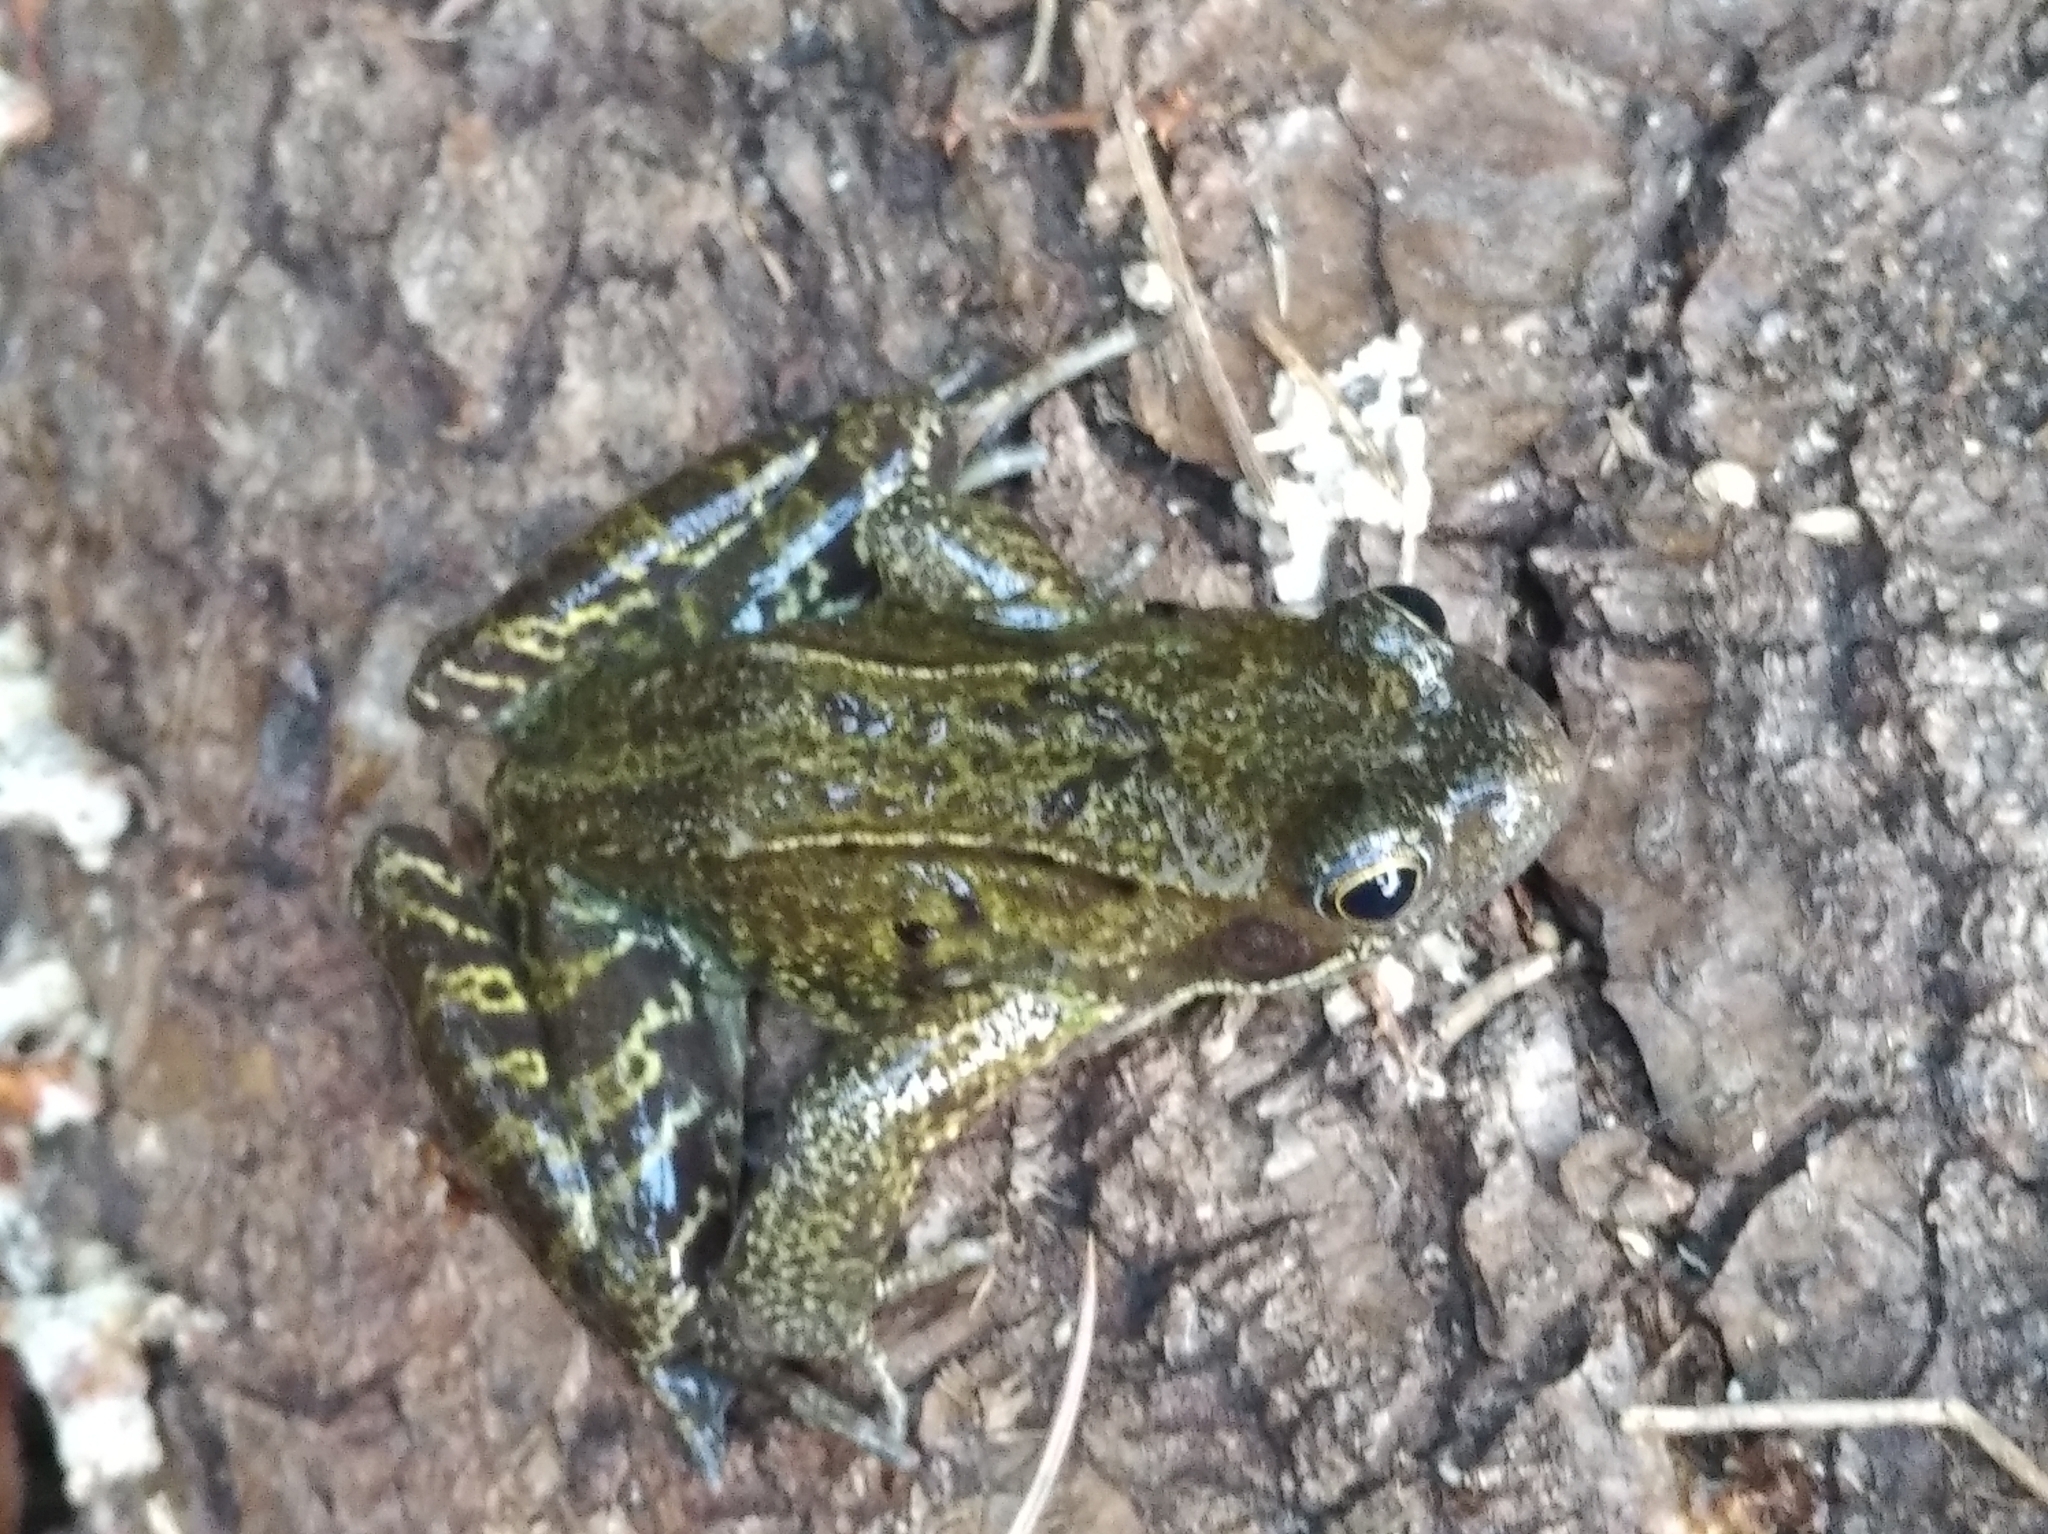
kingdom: Animalia
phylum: Chordata
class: Amphibia
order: Anura
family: Ranidae
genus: Rana
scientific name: Rana temporaria
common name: Common frog
